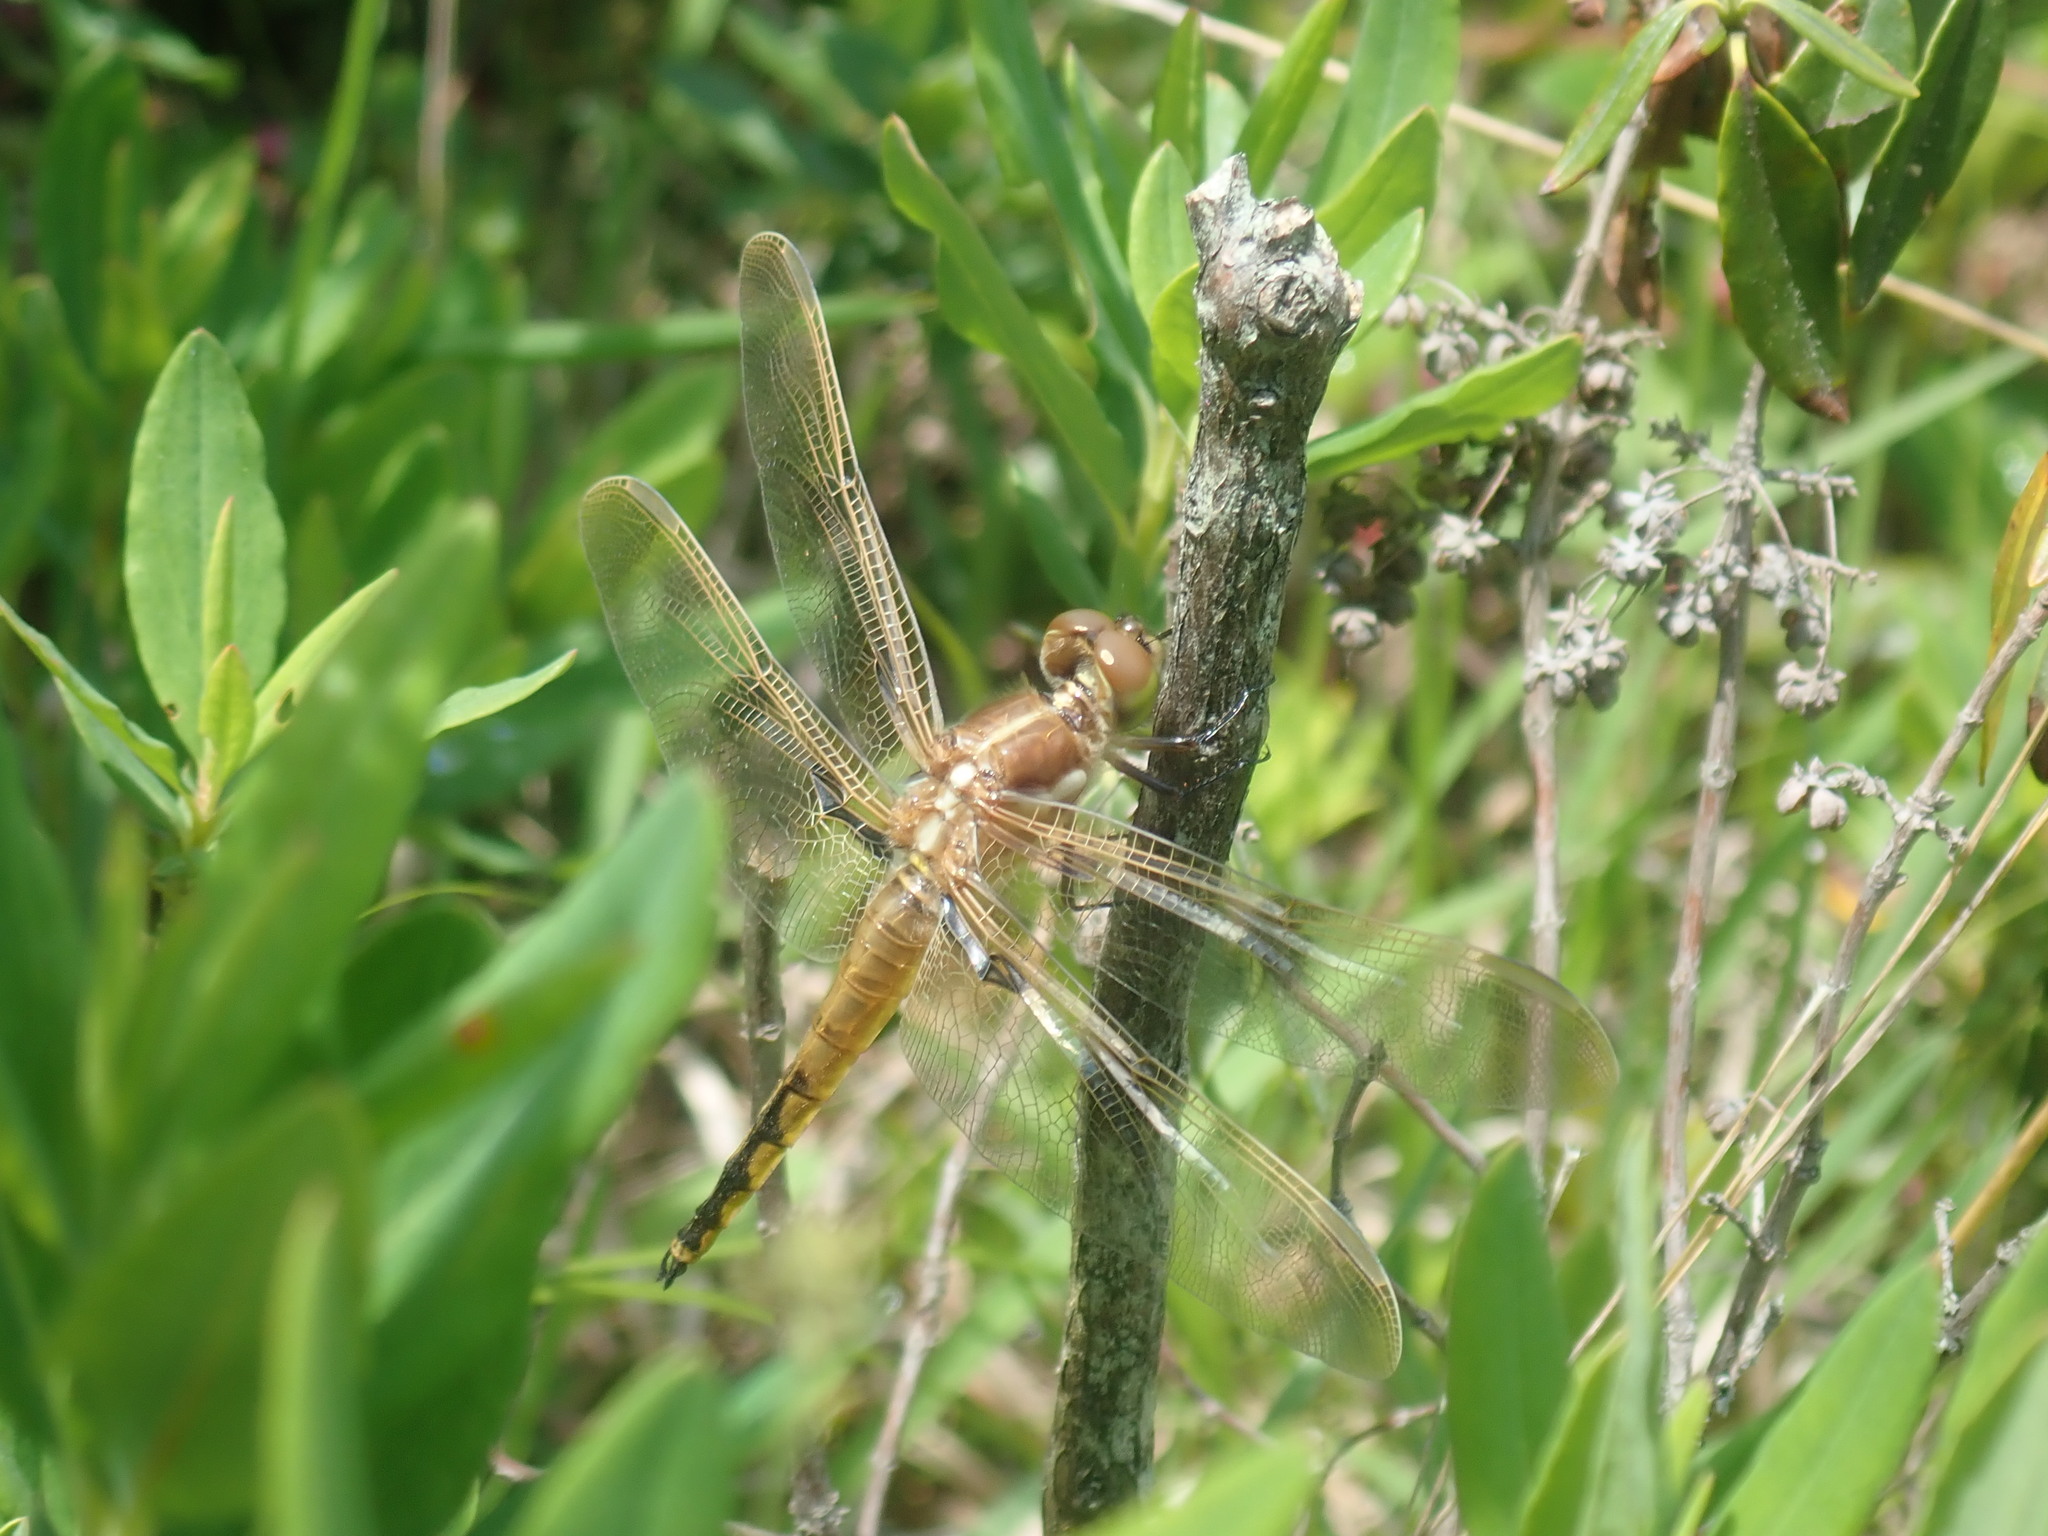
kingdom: Animalia
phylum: Arthropoda
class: Insecta
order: Odonata
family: Libellulidae
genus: Libellula
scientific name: Libellula semifasciata
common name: Painted skimmer
